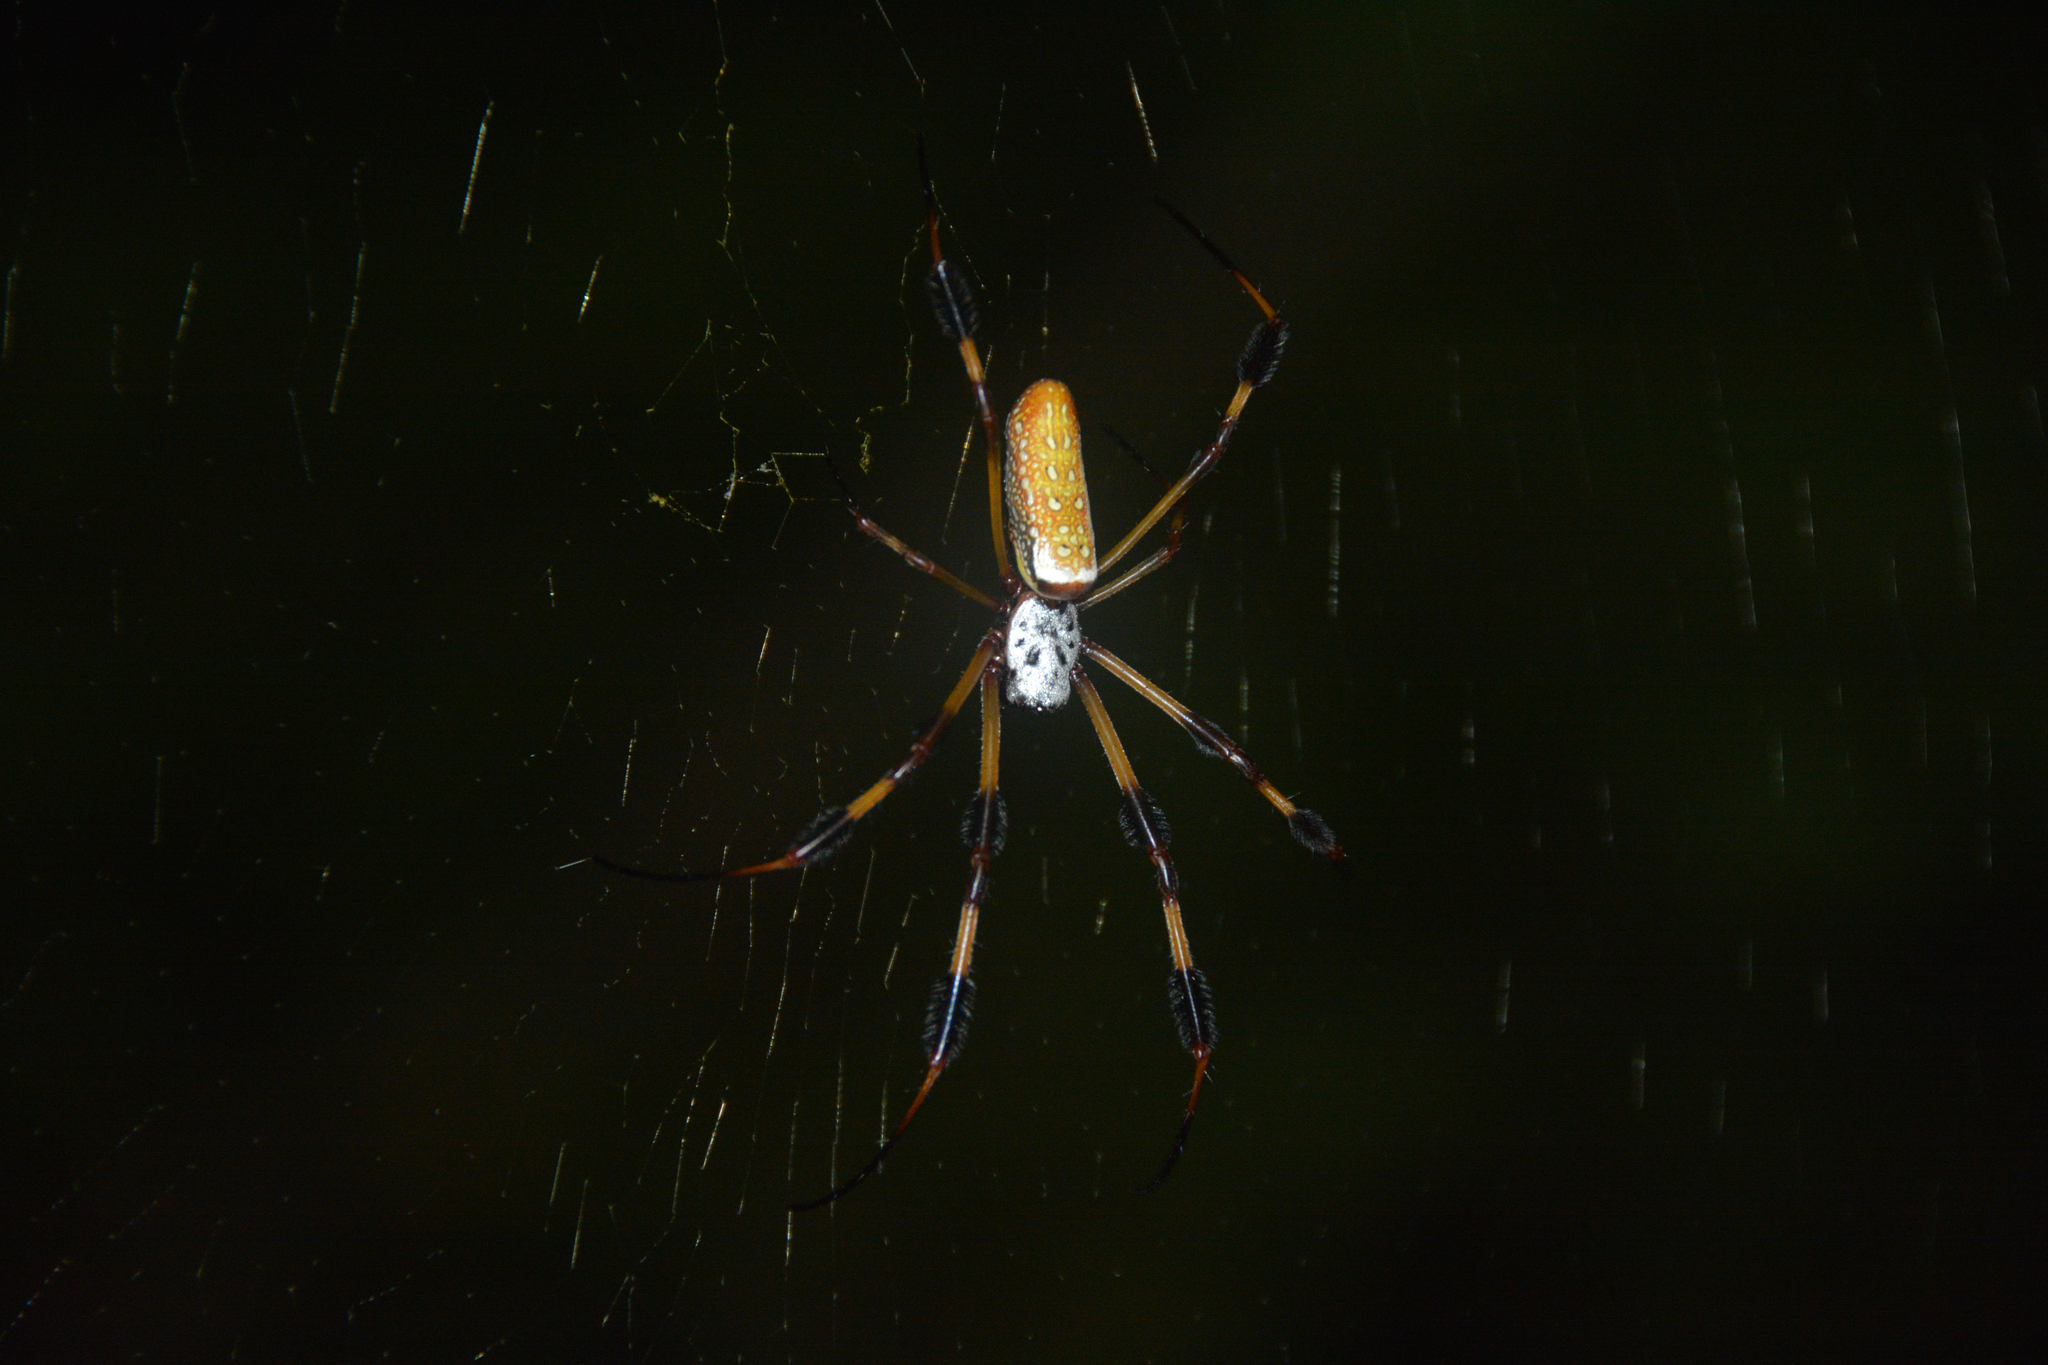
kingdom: Animalia
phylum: Arthropoda
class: Arachnida
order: Araneae
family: Araneidae
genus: Trichonephila
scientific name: Trichonephila clavipes
